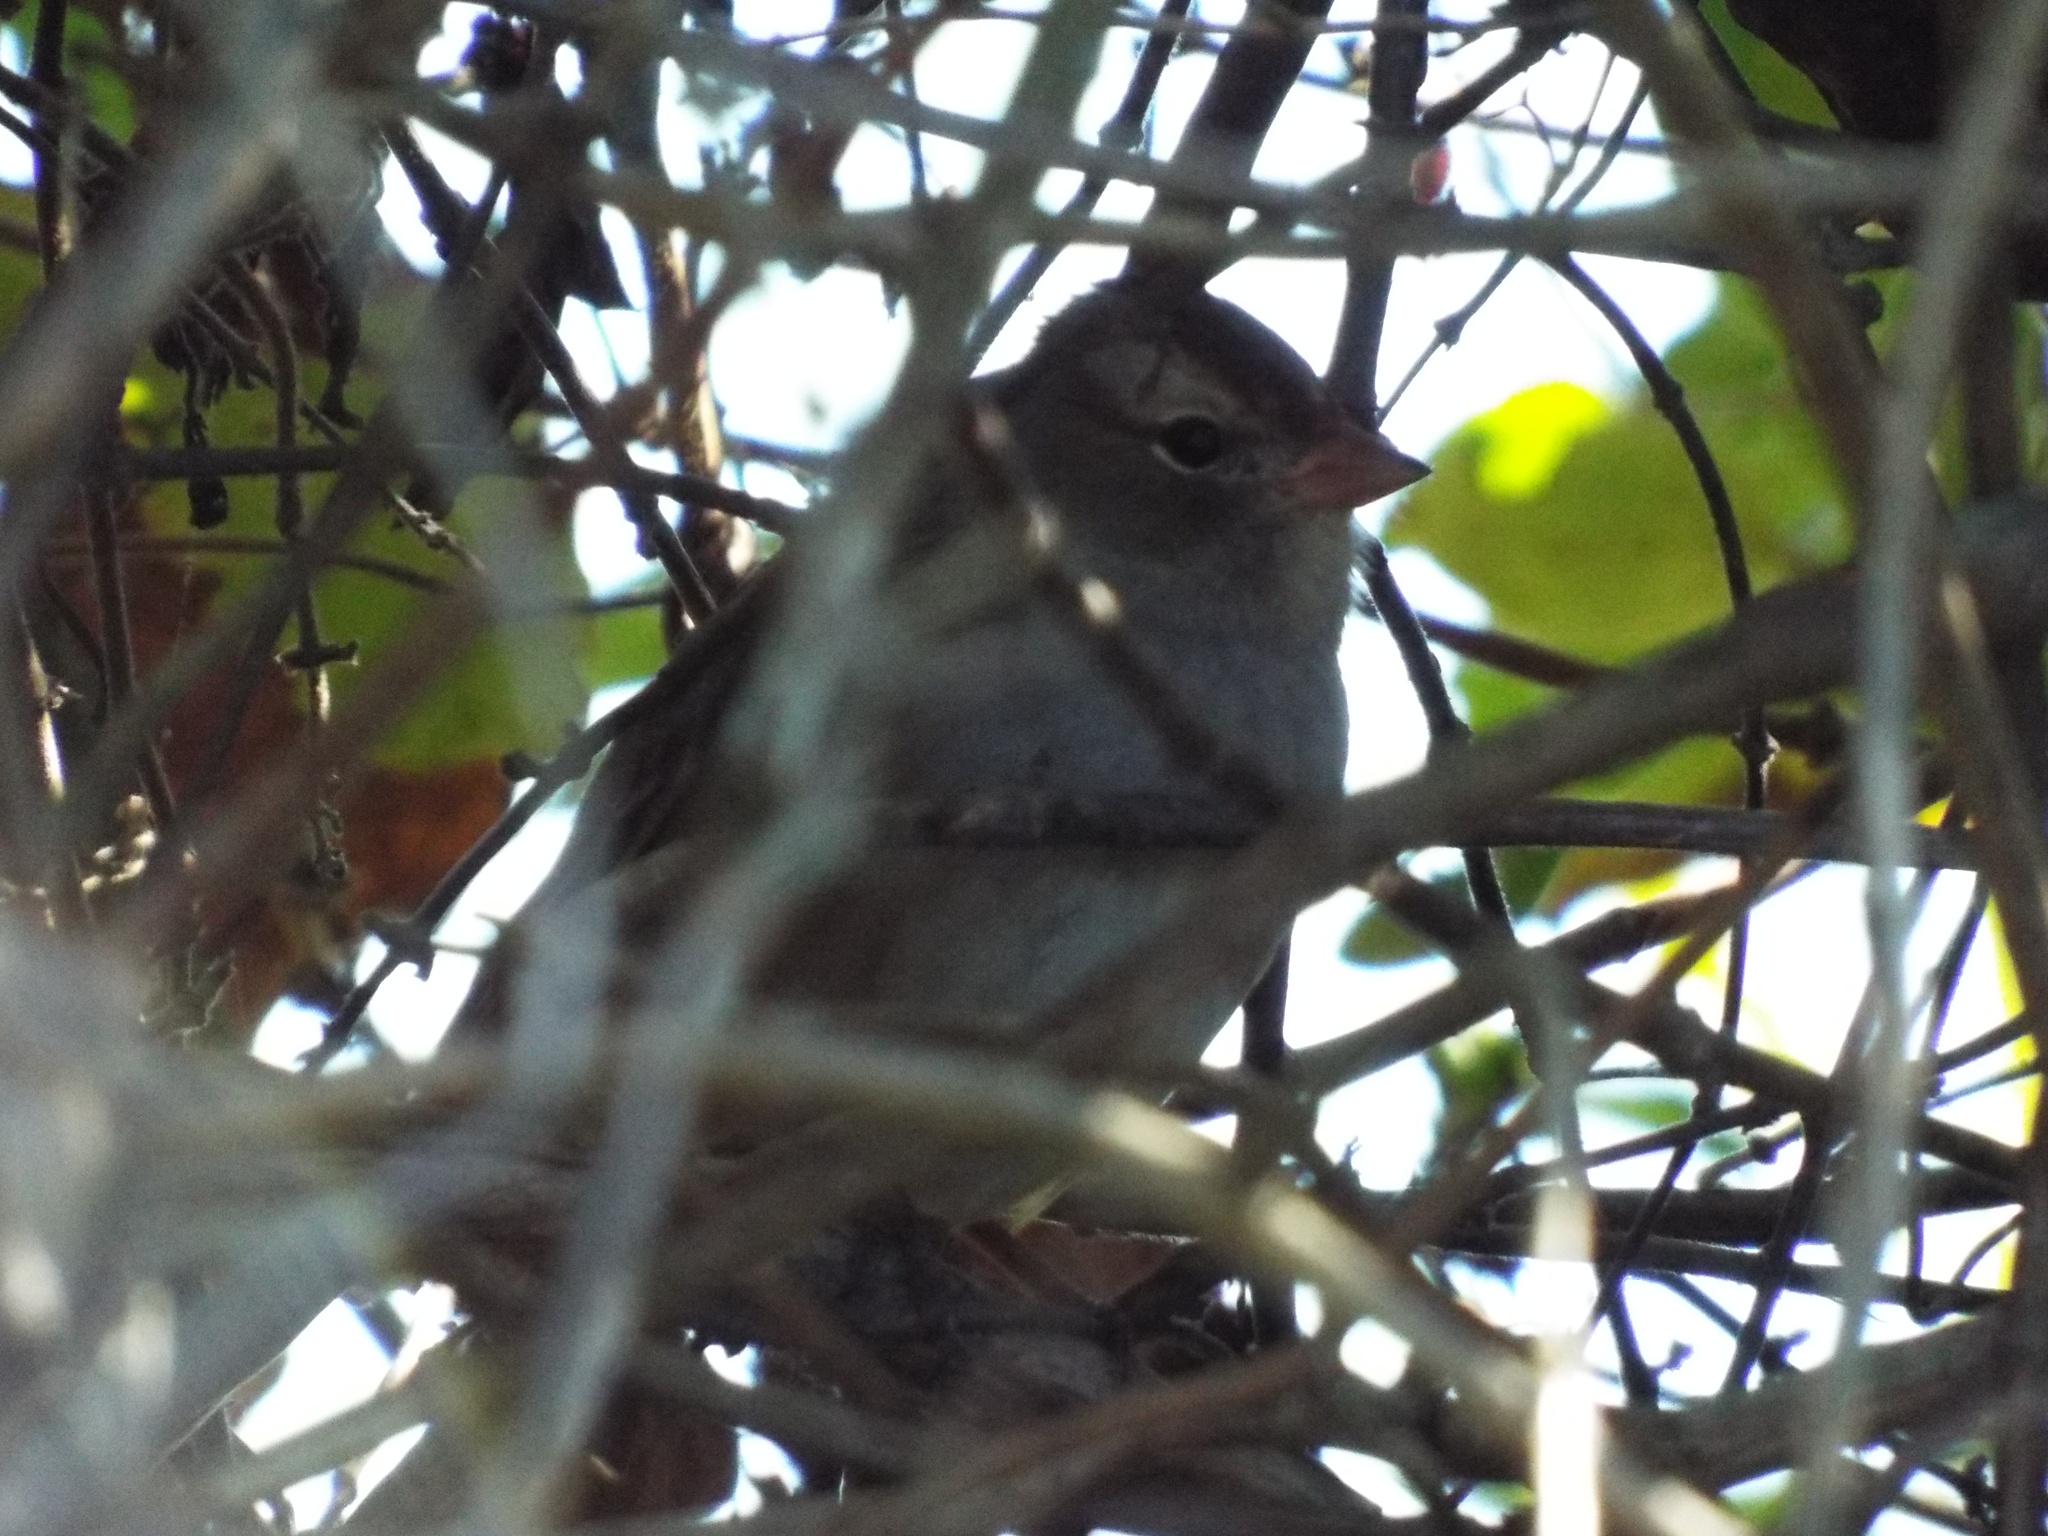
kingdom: Animalia
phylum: Chordata
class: Aves
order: Passeriformes
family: Passerellidae
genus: Zonotrichia
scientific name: Zonotrichia leucophrys
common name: White-crowned sparrow
